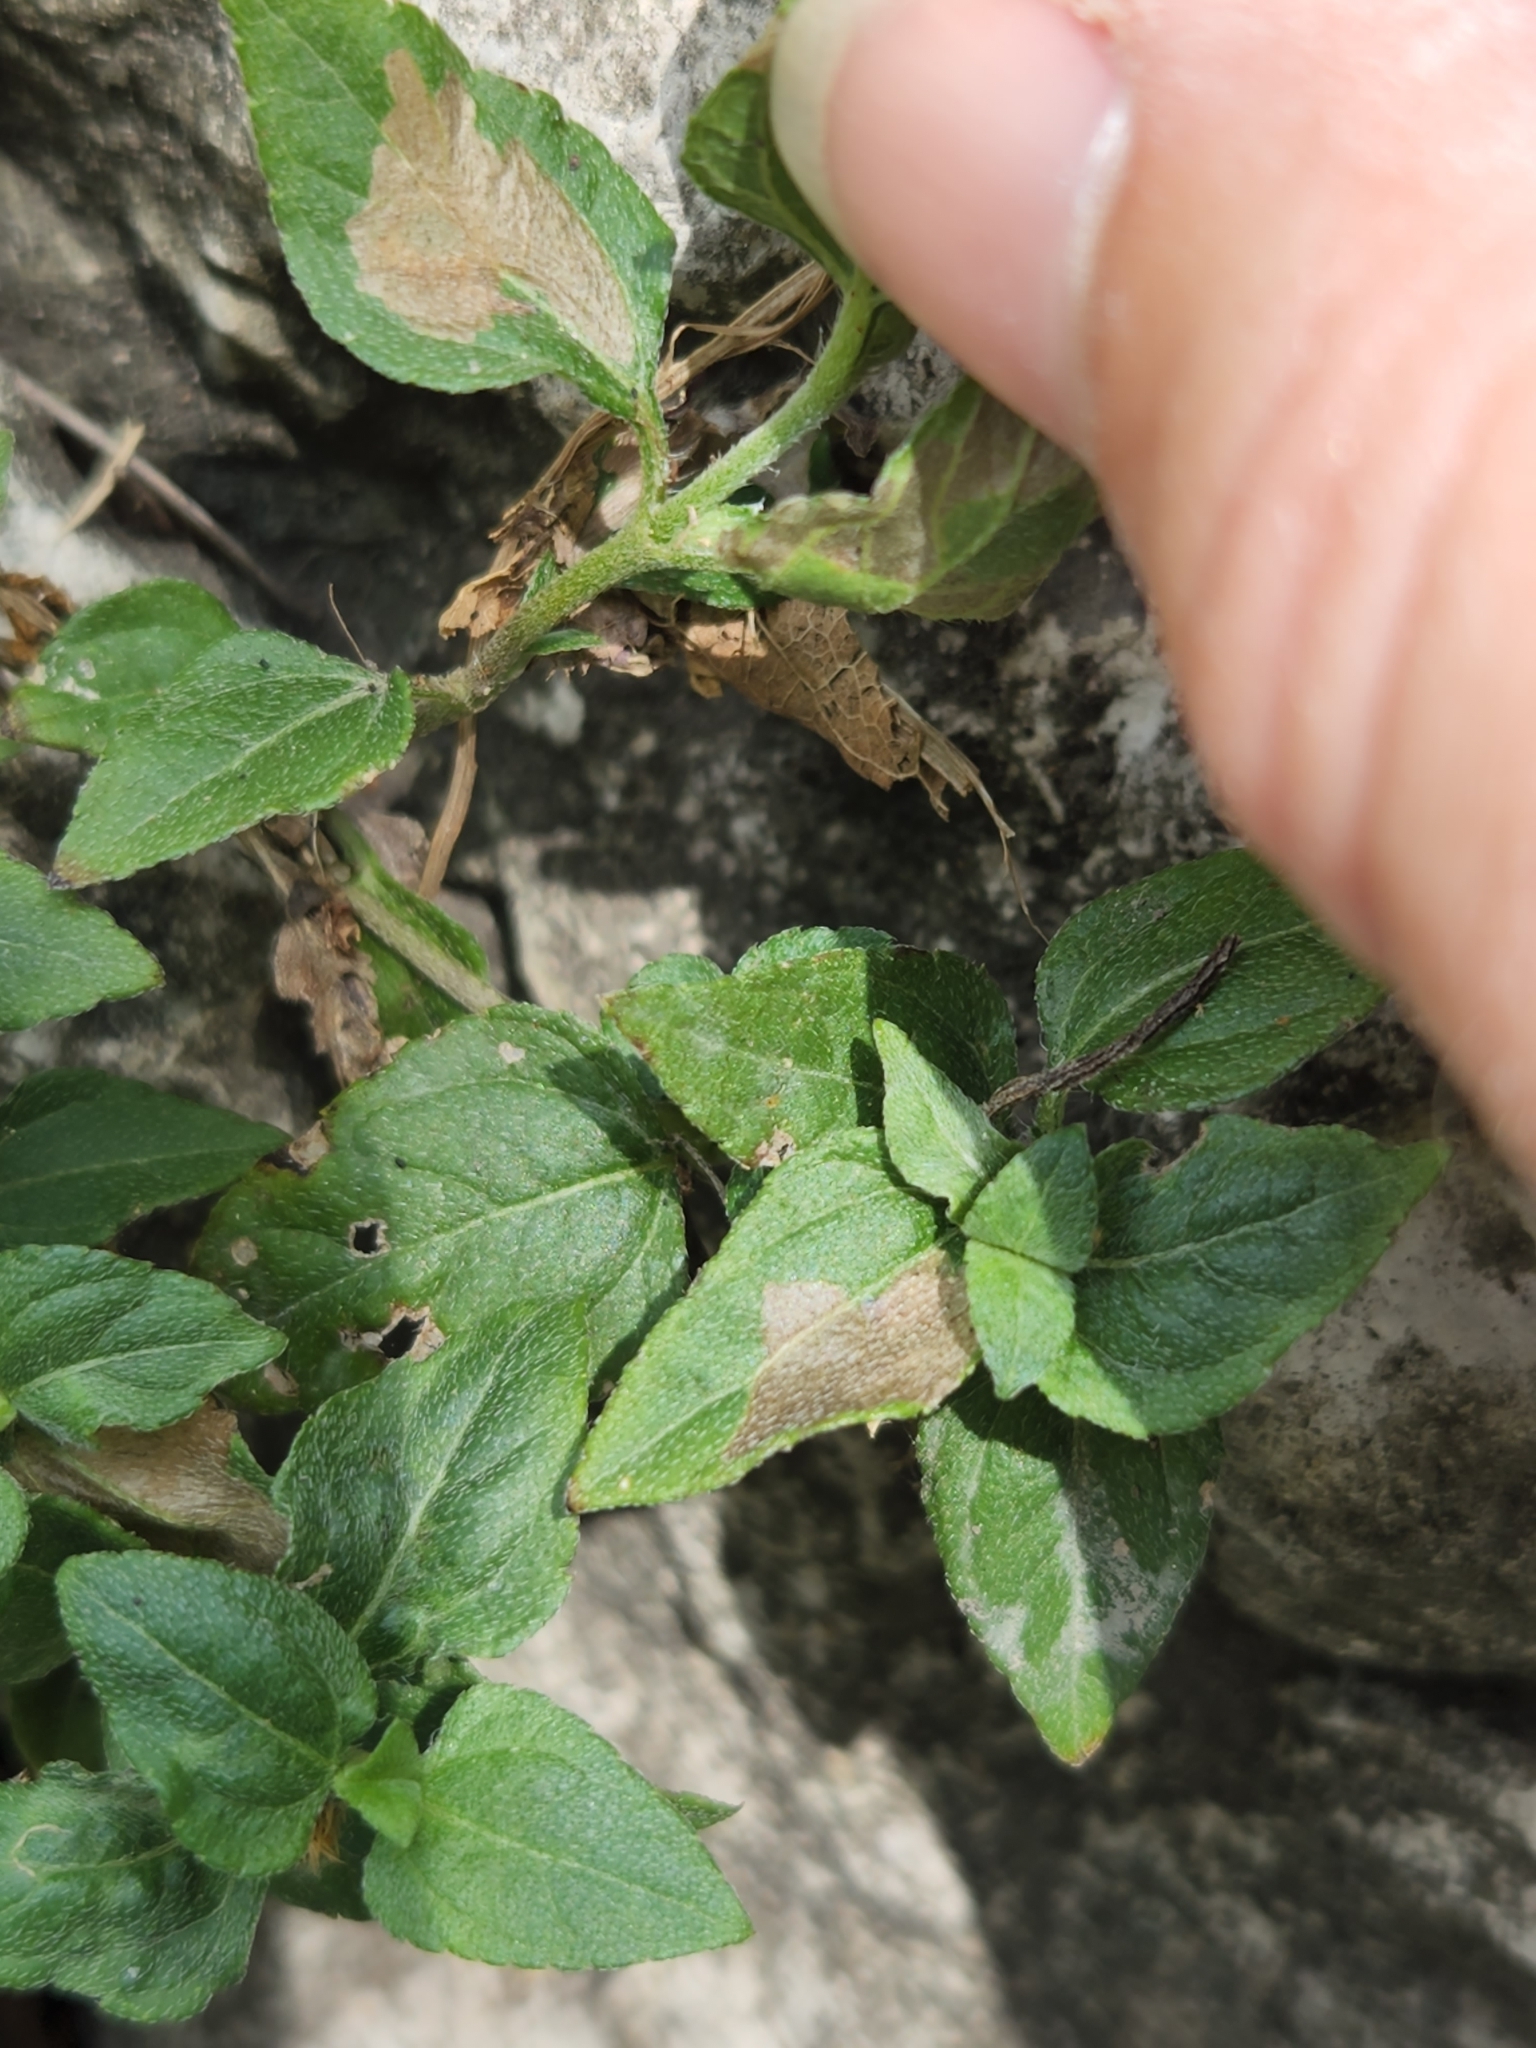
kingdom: Plantae
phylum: Tracheophyta
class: Magnoliopsida
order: Asterales
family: Asteraceae
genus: Calyptocarpus
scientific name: Calyptocarpus vialis
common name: Straggler daisy
